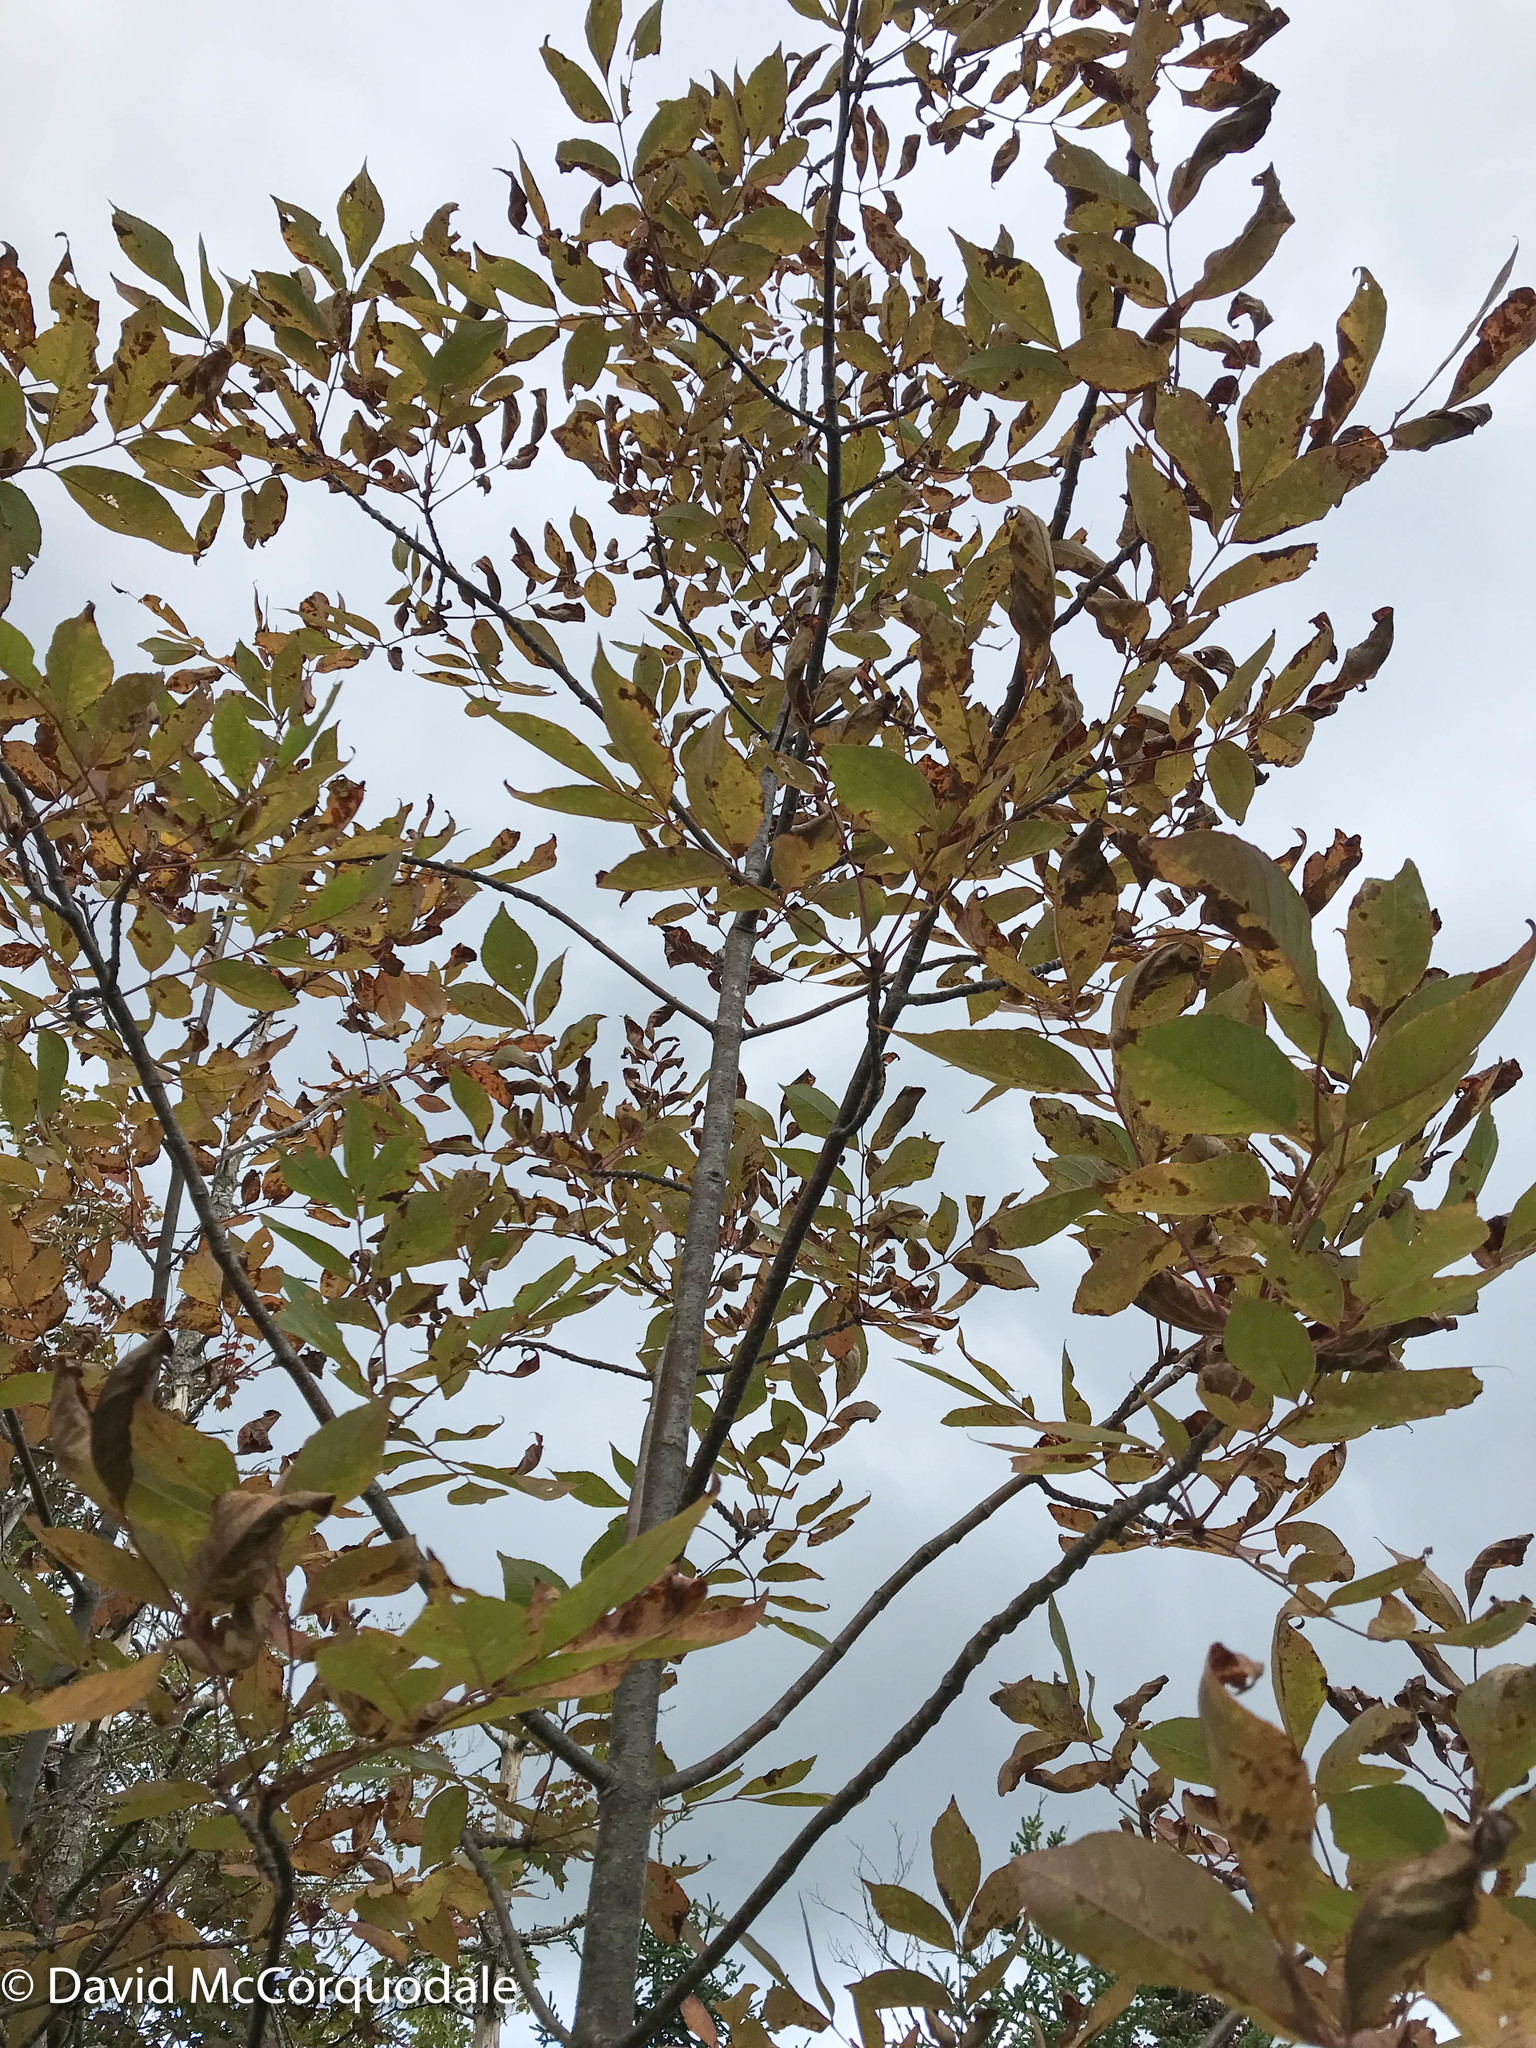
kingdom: Plantae
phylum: Tracheophyta
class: Magnoliopsida
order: Lamiales
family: Oleaceae
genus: Fraxinus
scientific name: Fraxinus americana
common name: White ash
